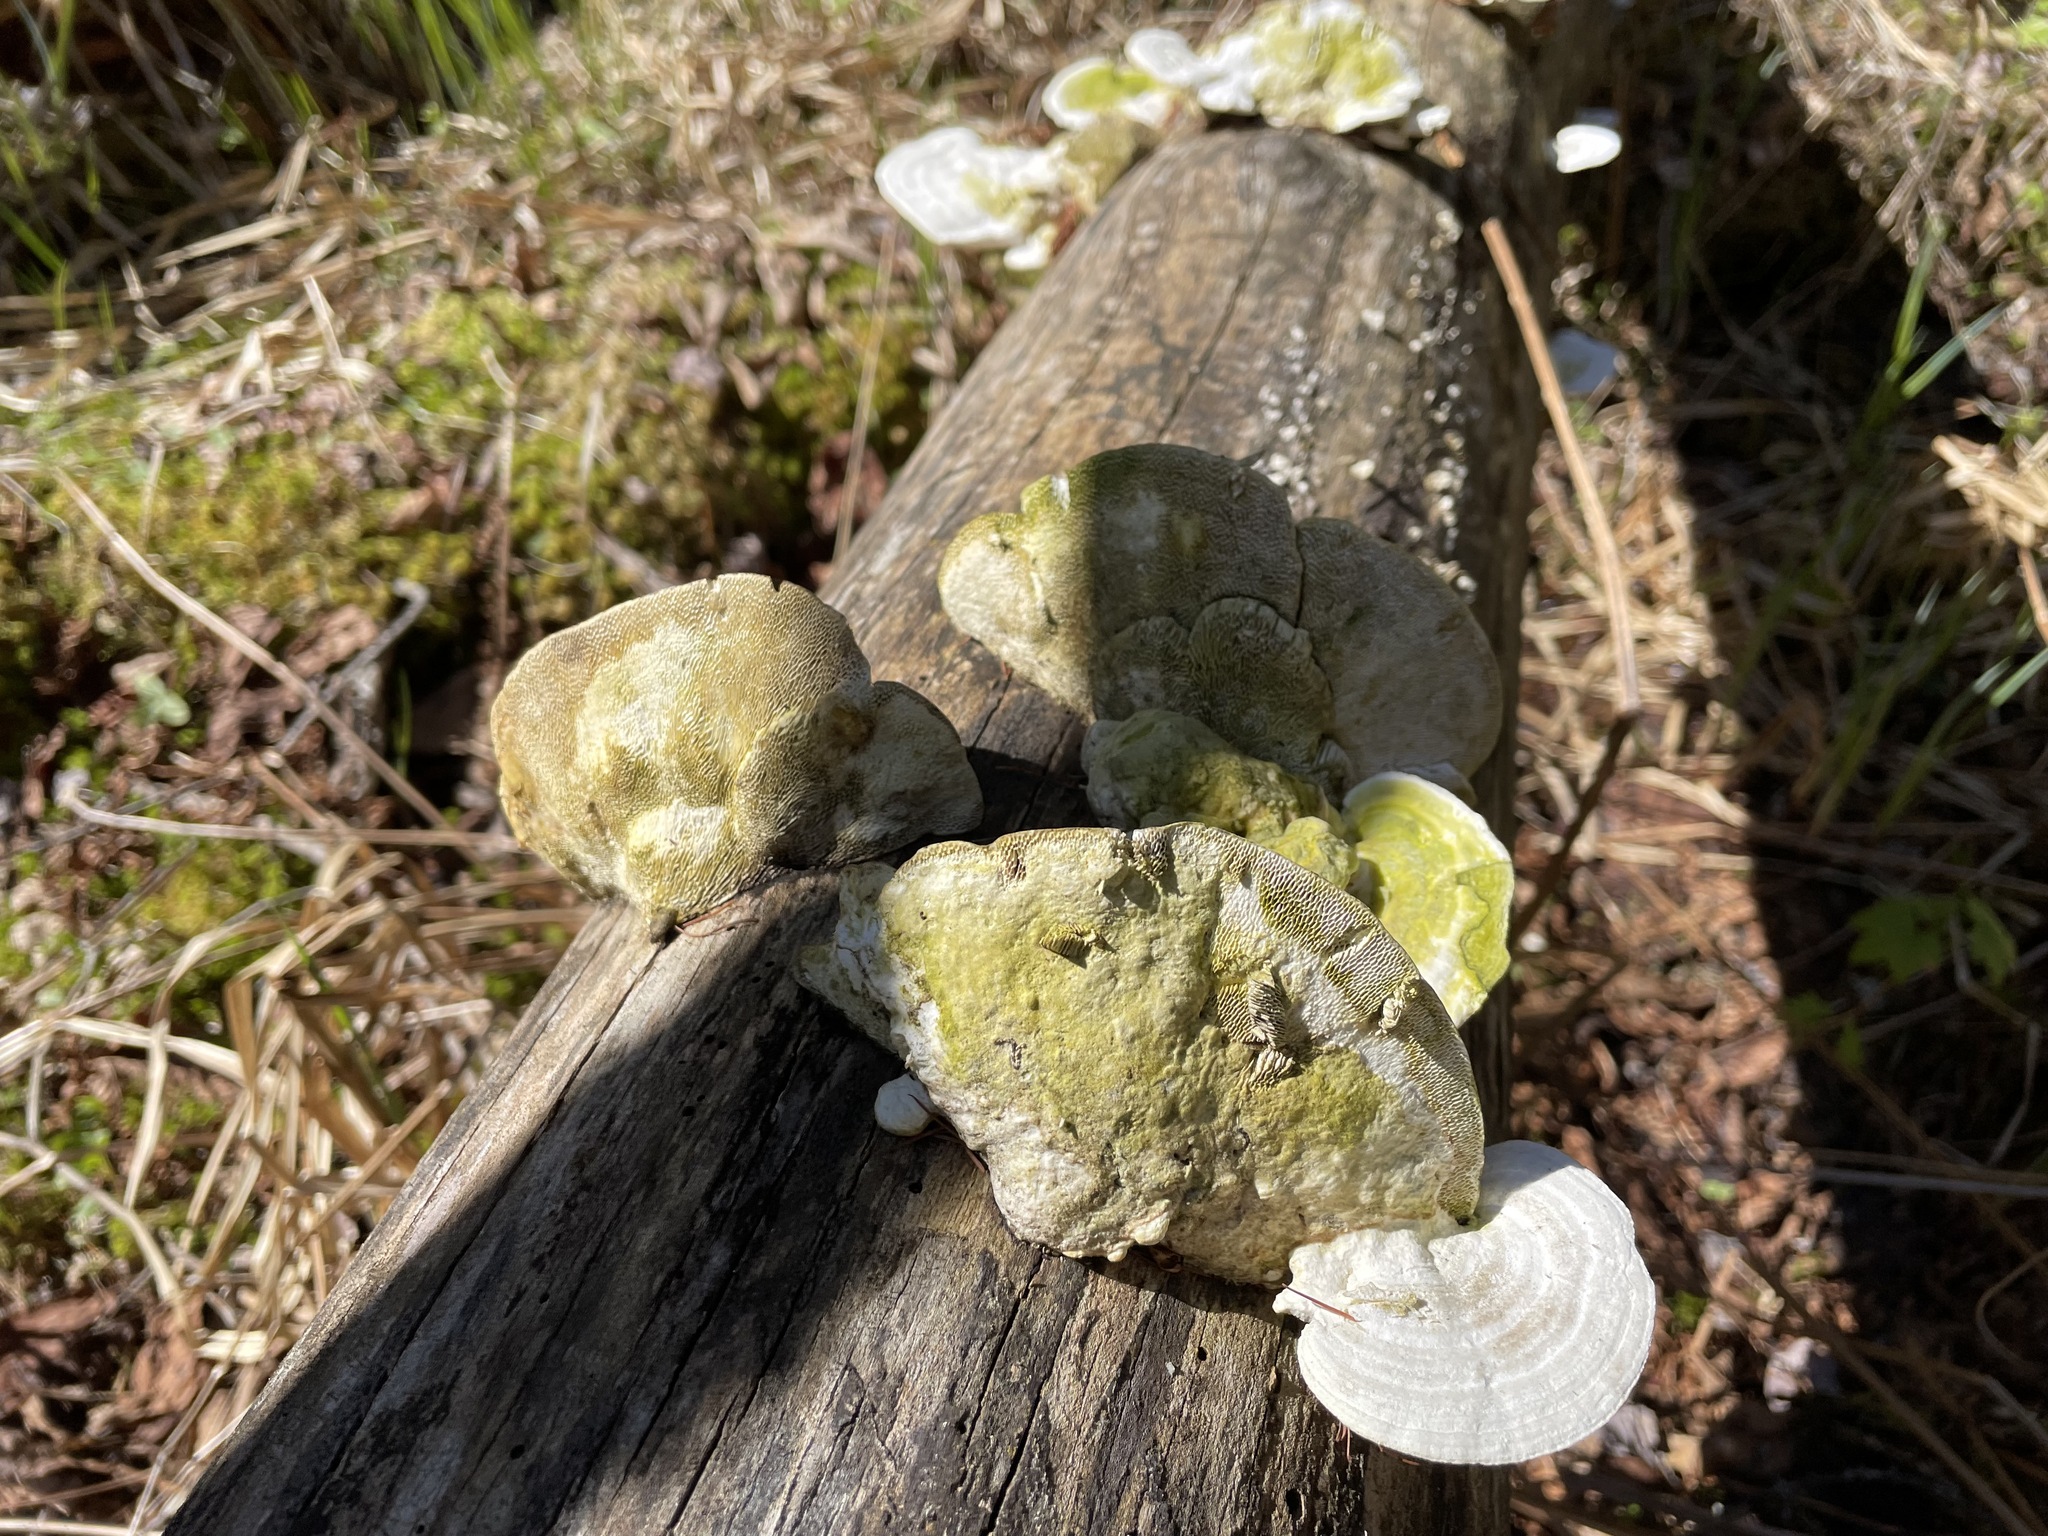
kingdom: Fungi
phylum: Basidiomycota
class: Agaricomycetes
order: Polyporales
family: Polyporaceae
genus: Trametes
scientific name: Trametes gibbosa
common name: Lumpy bracket
